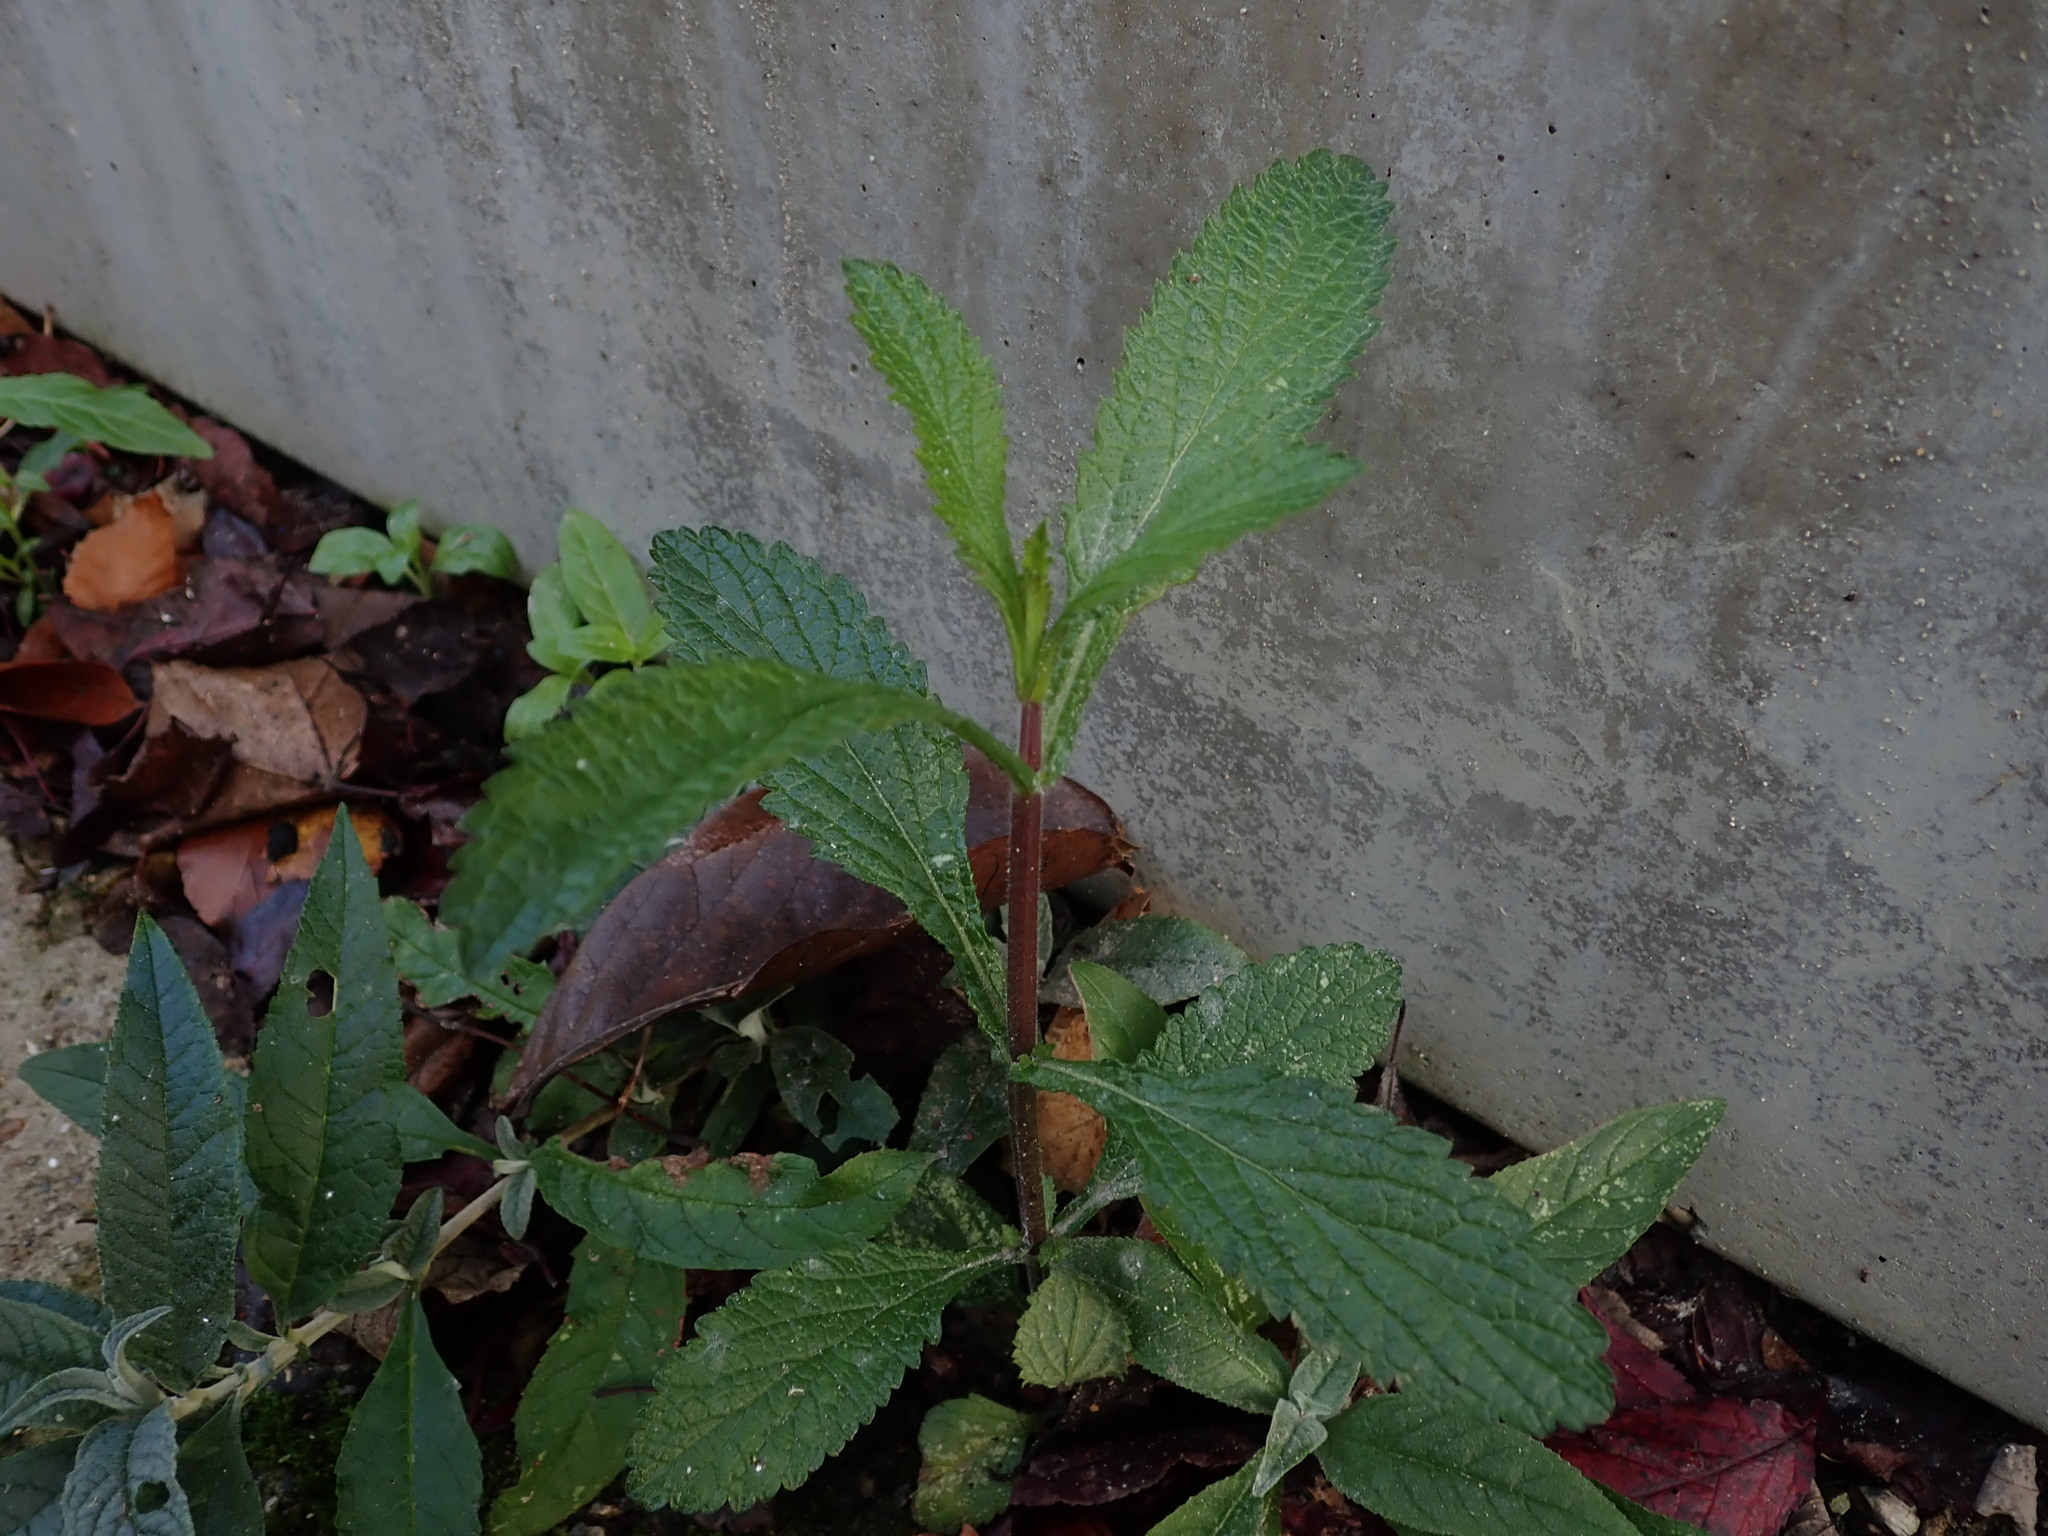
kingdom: Plantae
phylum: Tracheophyta
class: Magnoliopsida
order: Lamiales
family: Verbenaceae
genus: Verbena
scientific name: Verbena bonariensis
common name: Purpletop vervain
